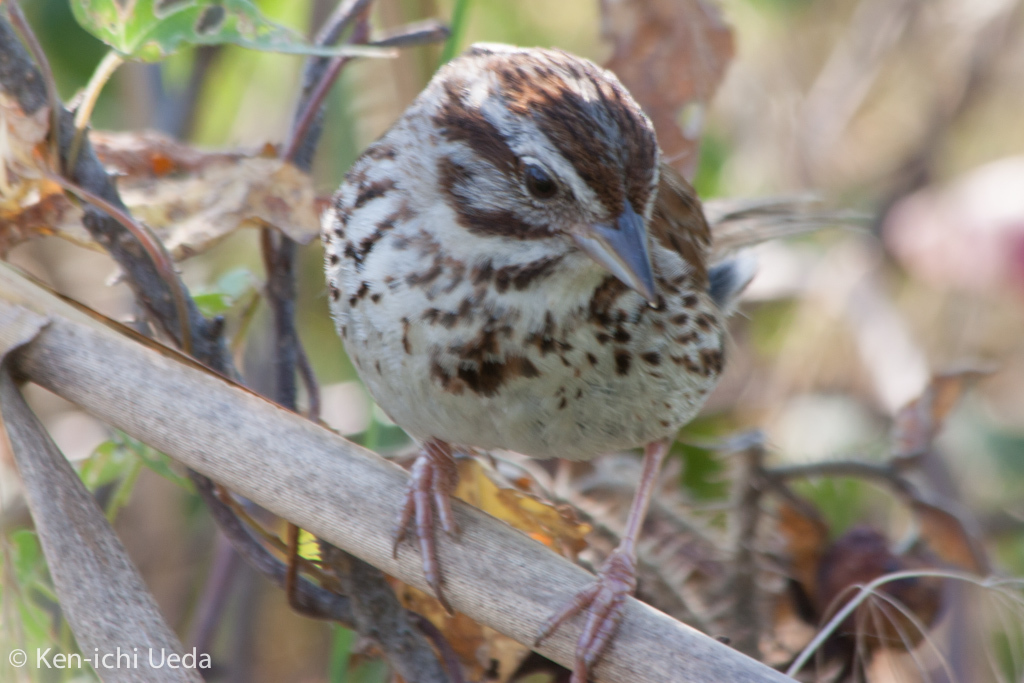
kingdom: Animalia
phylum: Chordata
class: Aves
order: Passeriformes
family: Passerellidae
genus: Melospiza
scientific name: Melospiza melodia
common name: Song sparrow
